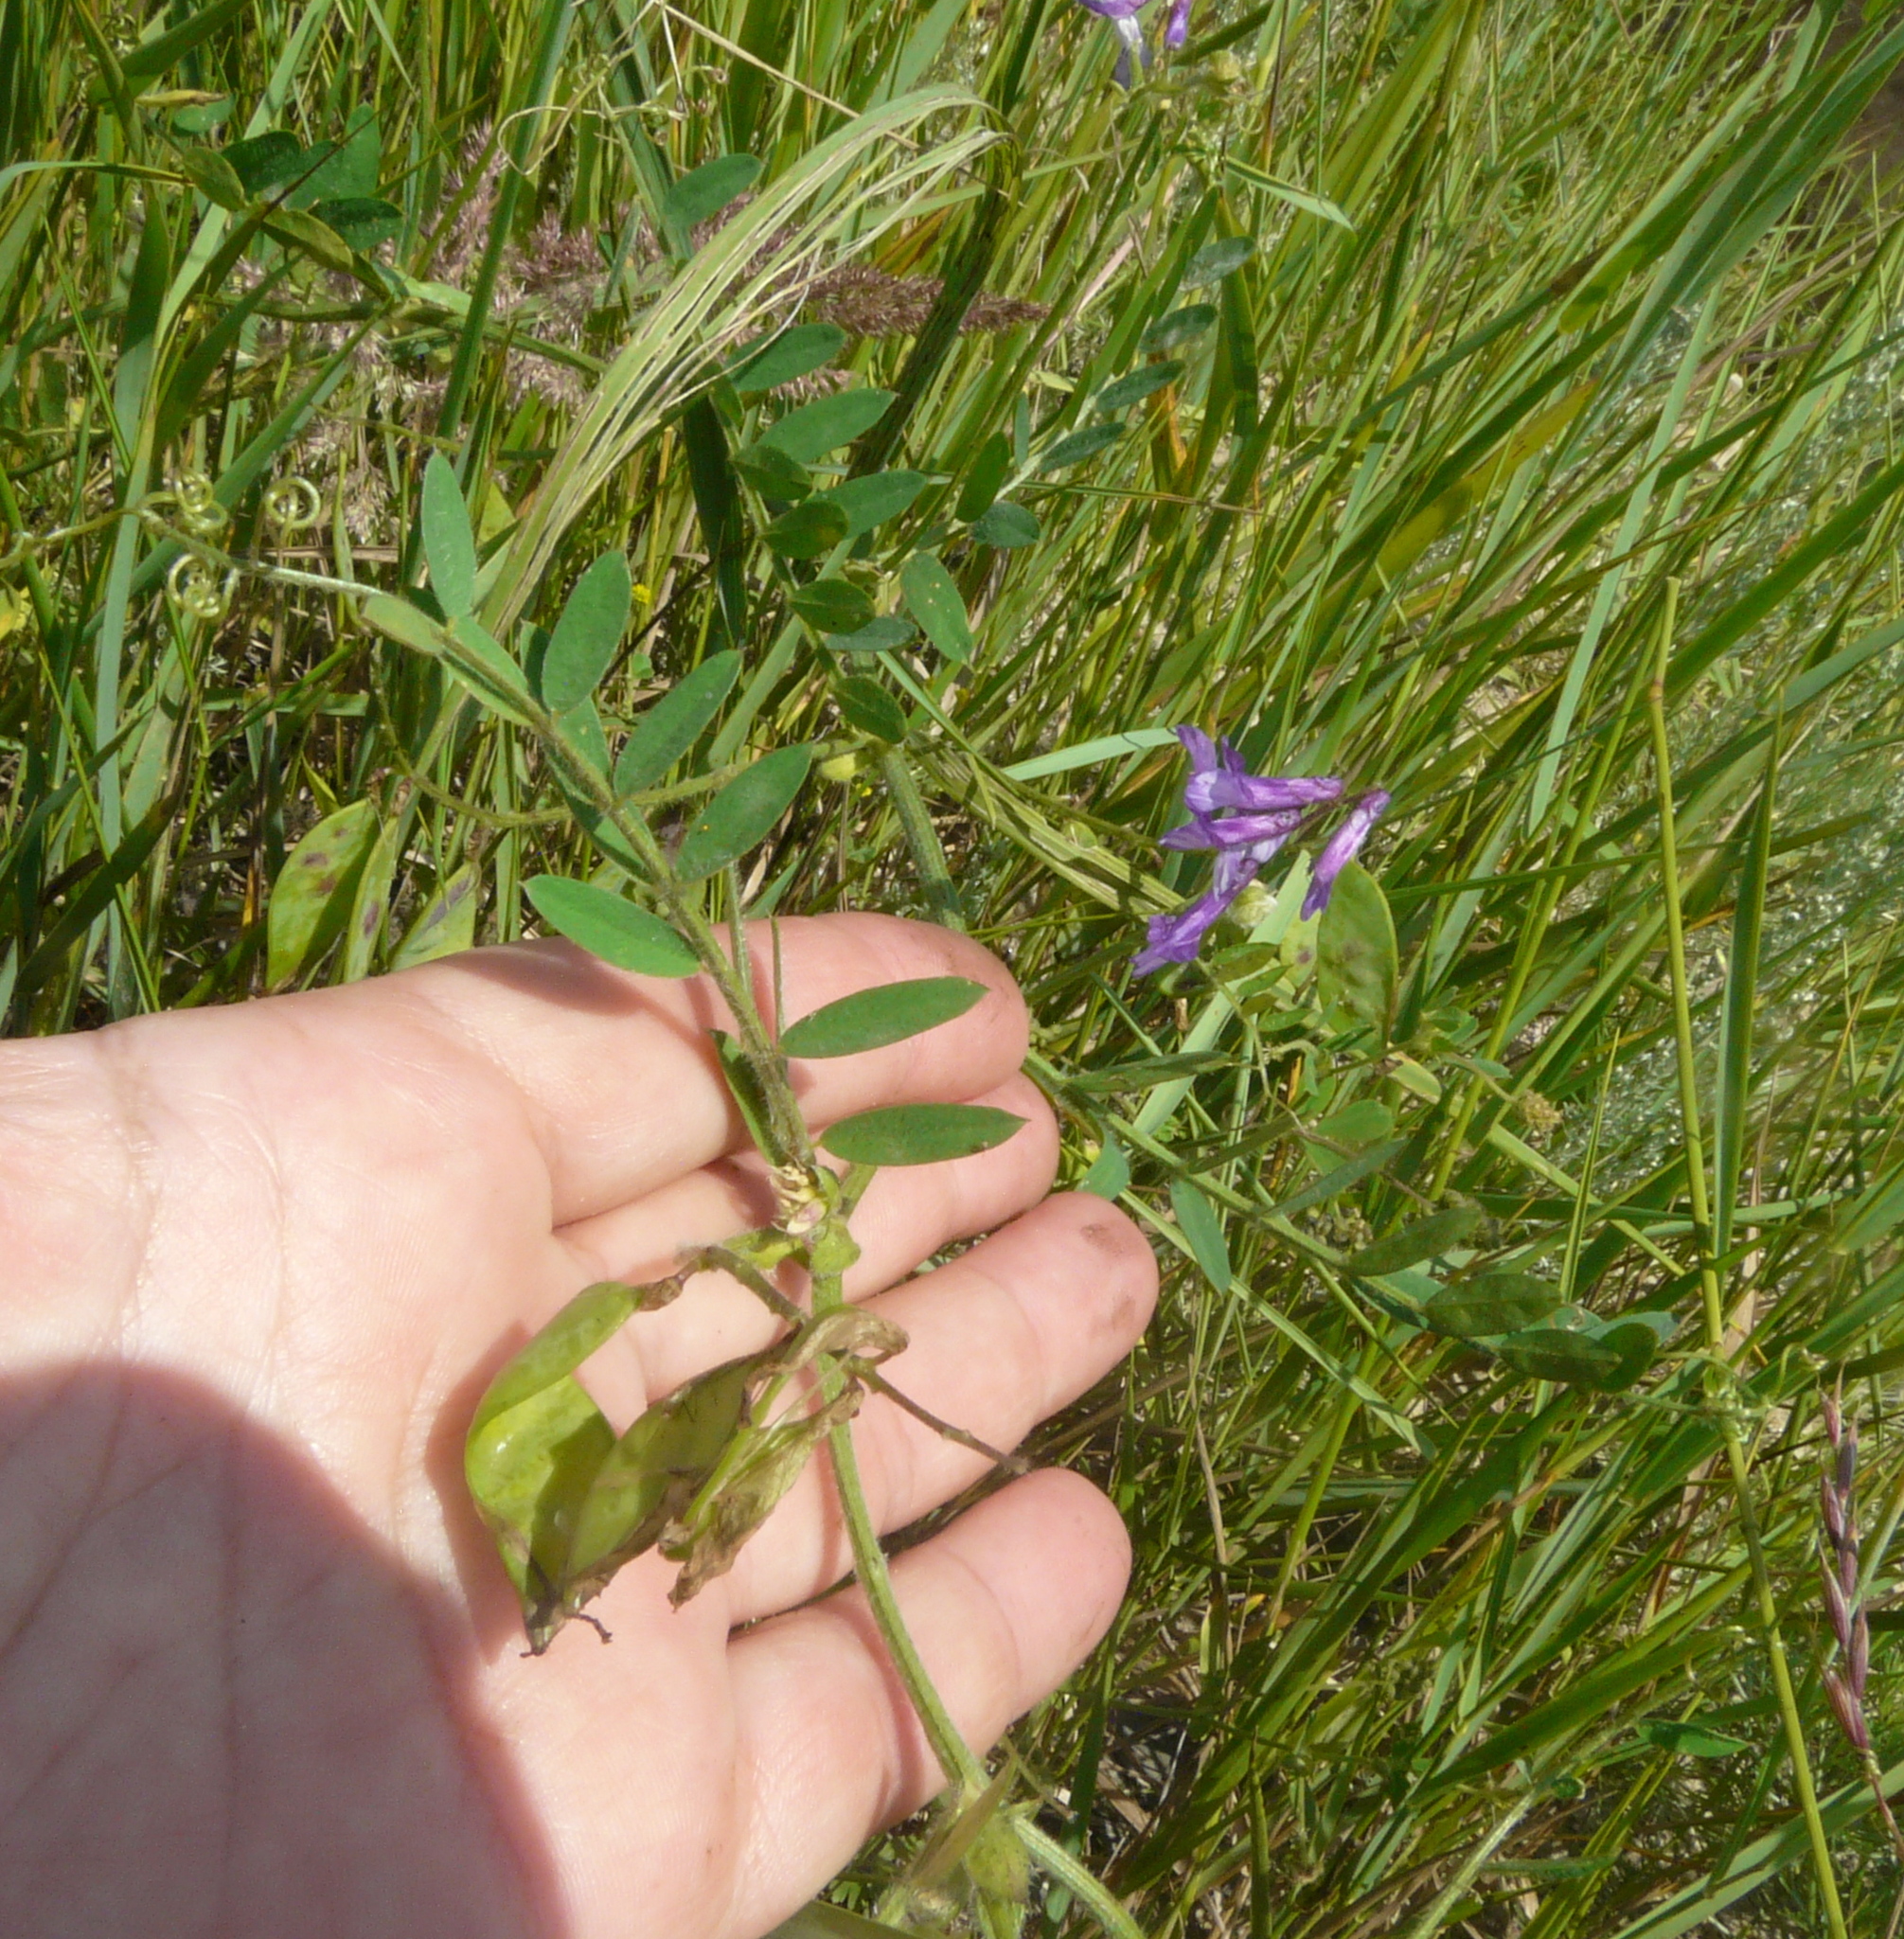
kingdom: Plantae
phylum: Tracheophyta
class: Magnoliopsida
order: Fabales
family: Fabaceae
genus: Vicia
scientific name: Vicia biennis
